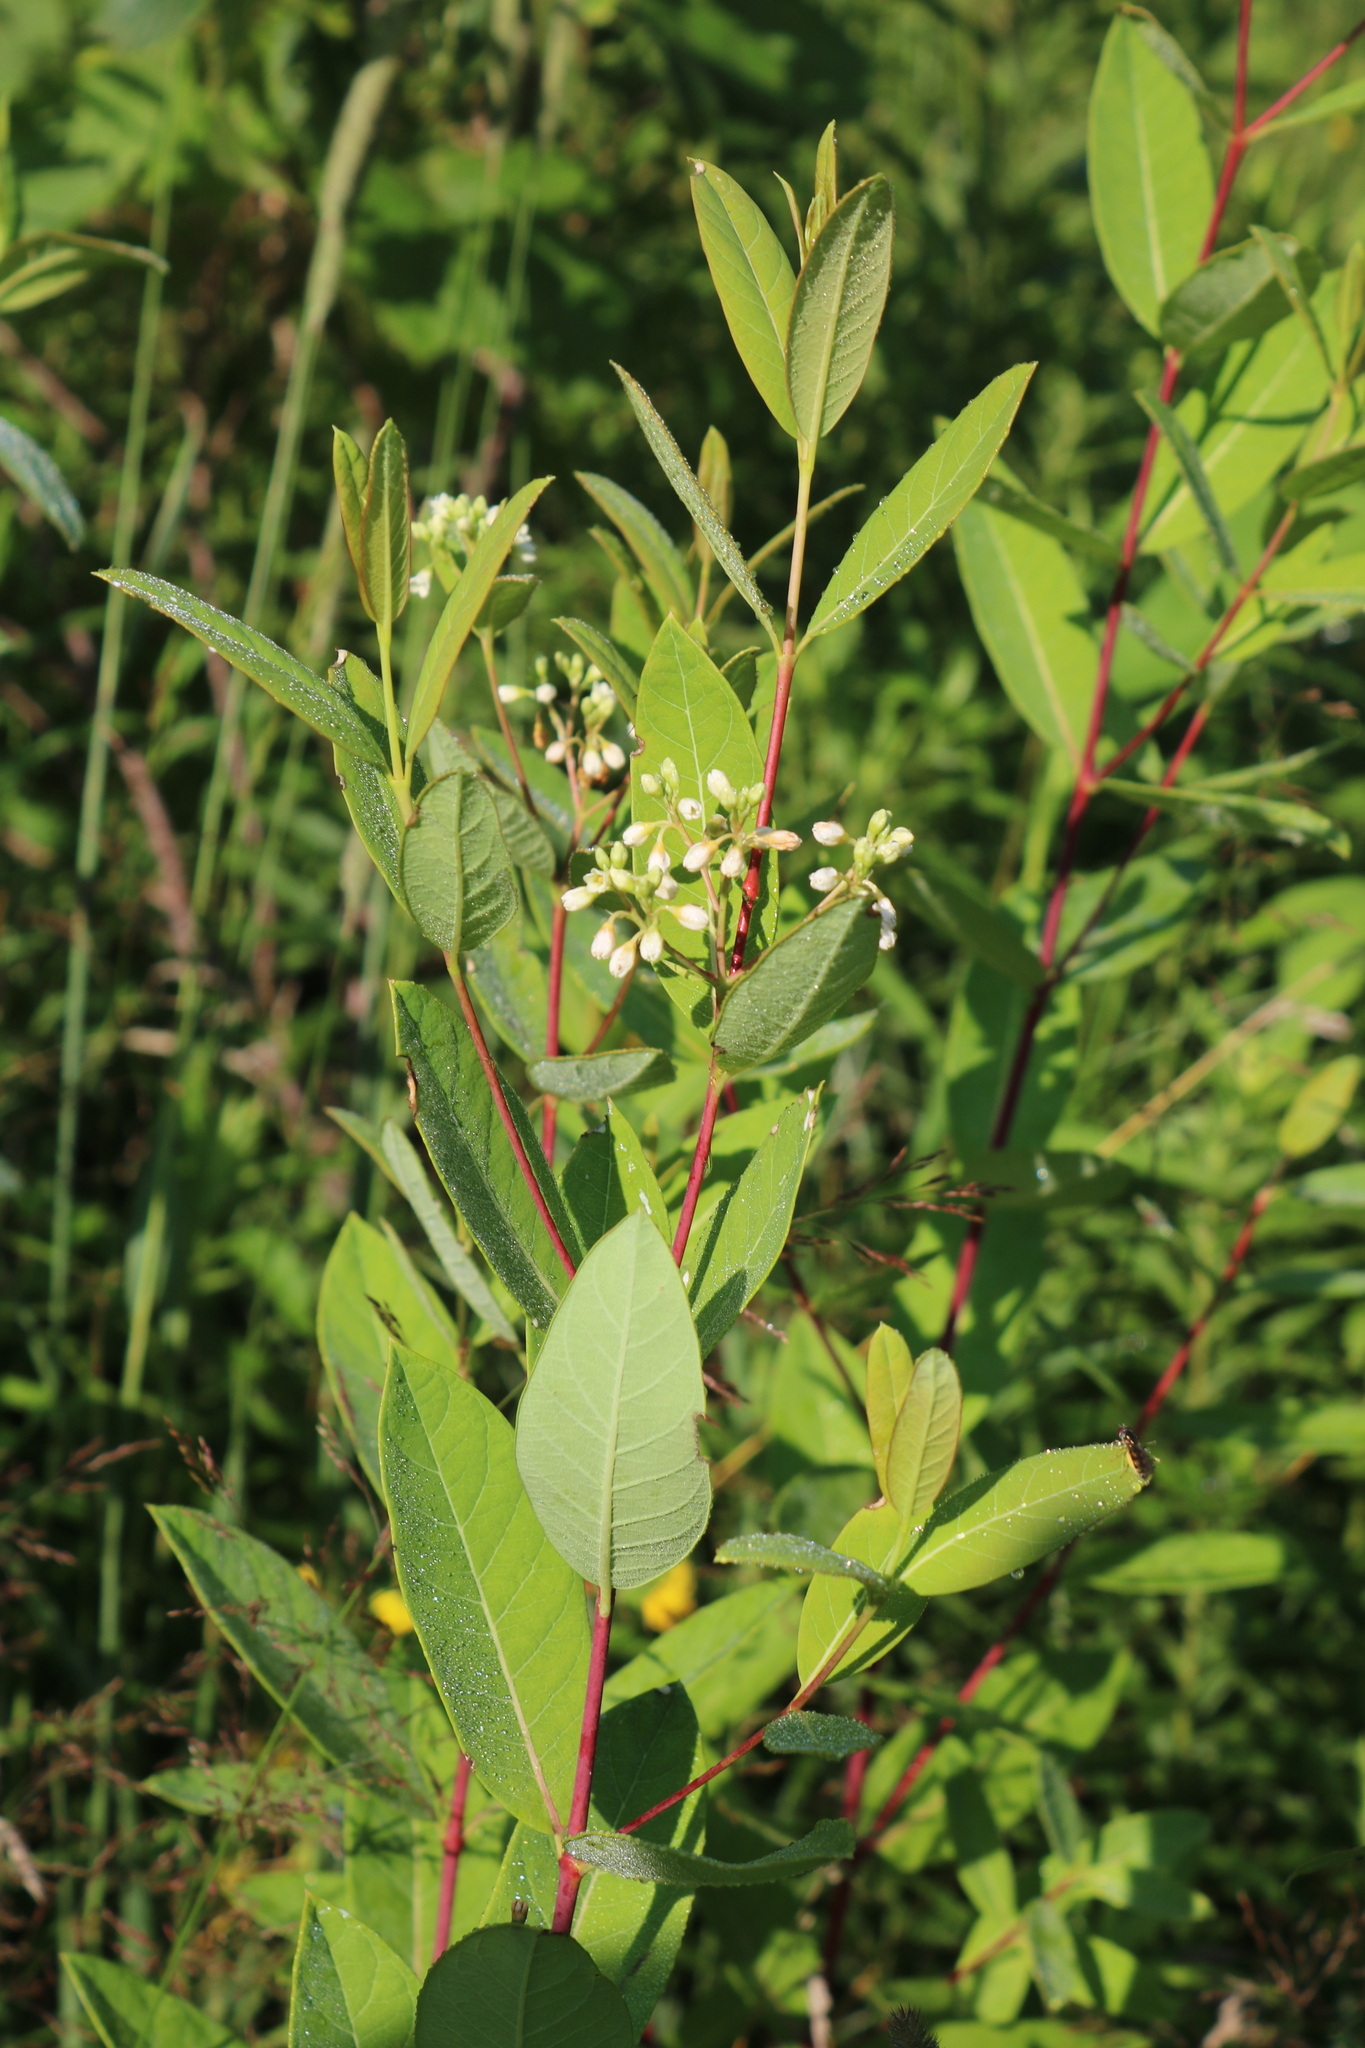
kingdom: Plantae
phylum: Tracheophyta
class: Magnoliopsida
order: Gentianales
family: Apocynaceae
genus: Apocynum
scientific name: Apocynum cannabinum
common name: Hemp dogbane
